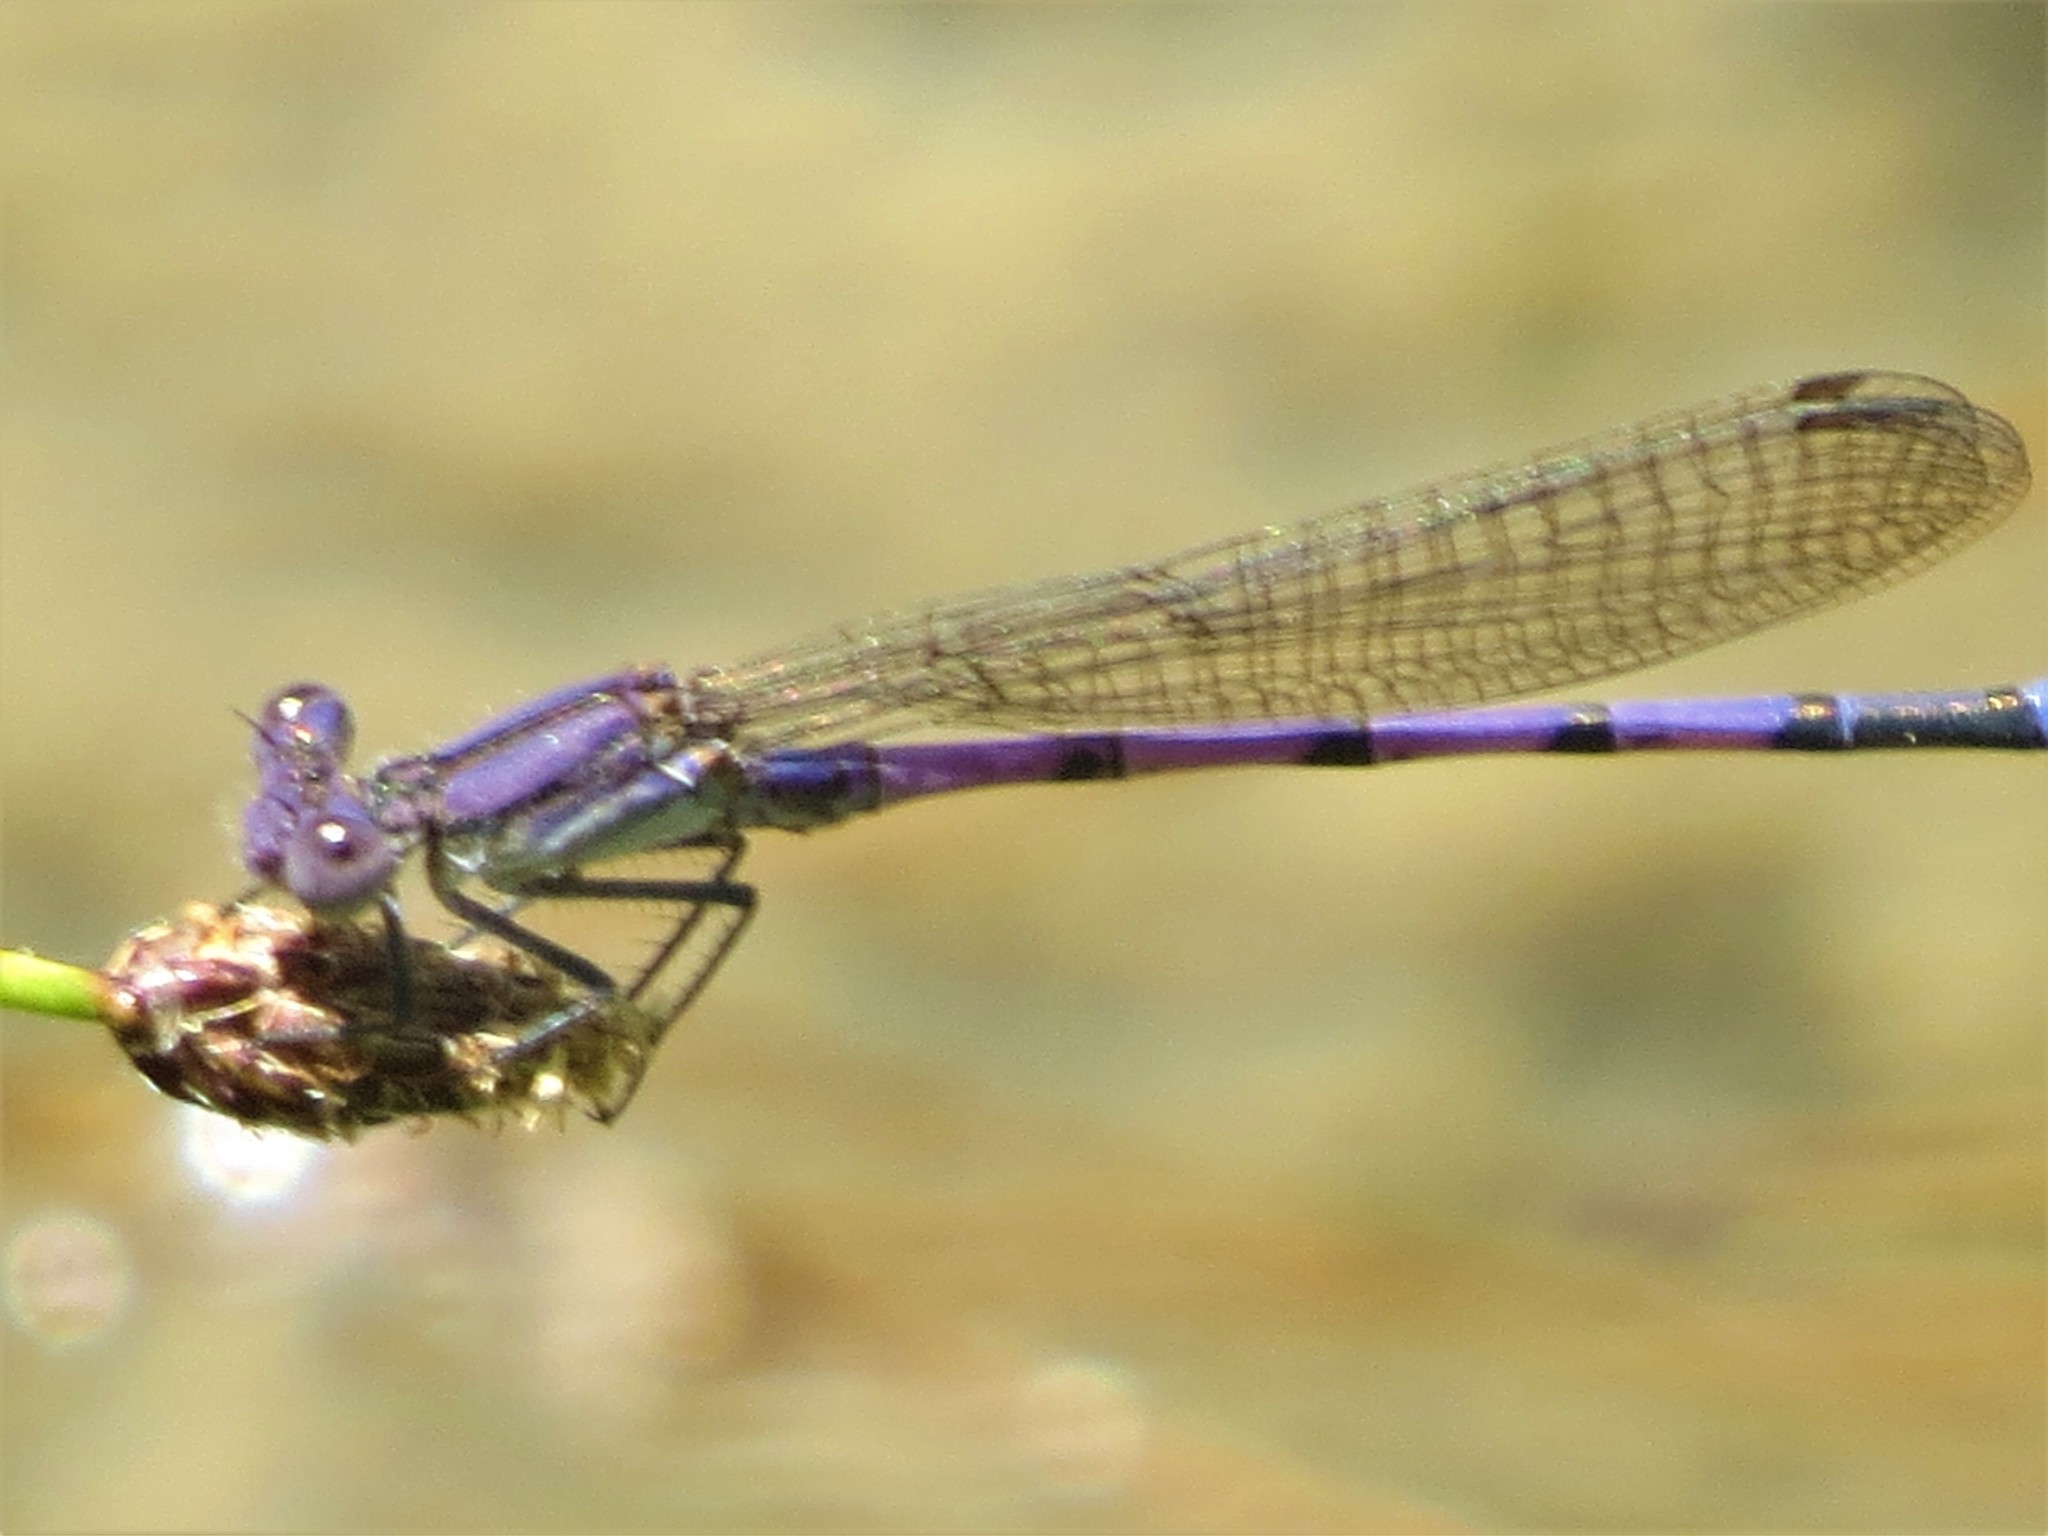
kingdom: Animalia
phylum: Arthropoda
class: Insecta
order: Odonata
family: Coenagrionidae
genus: Argia
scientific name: Argia fumipennis
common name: Variable dancer
